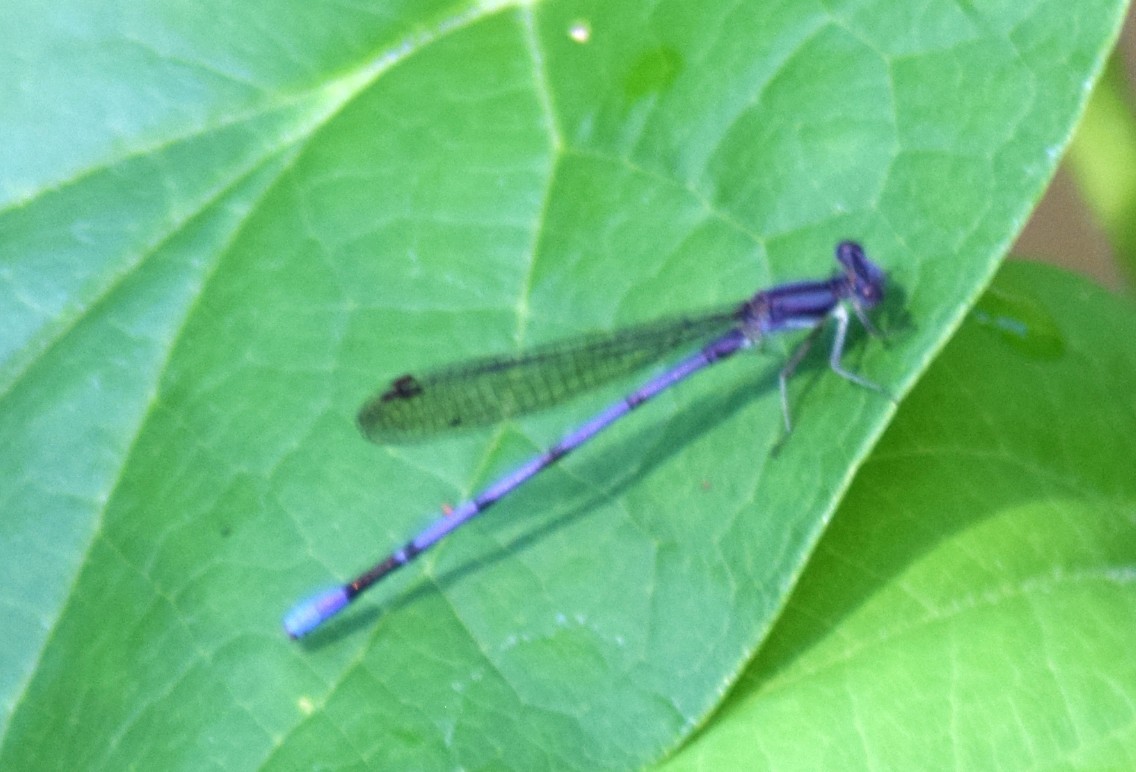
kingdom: Animalia
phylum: Arthropoda
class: Insecta
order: Odonata
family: Coenagrionidae
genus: Argia
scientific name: Argia fumipennis
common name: Variable dancer
